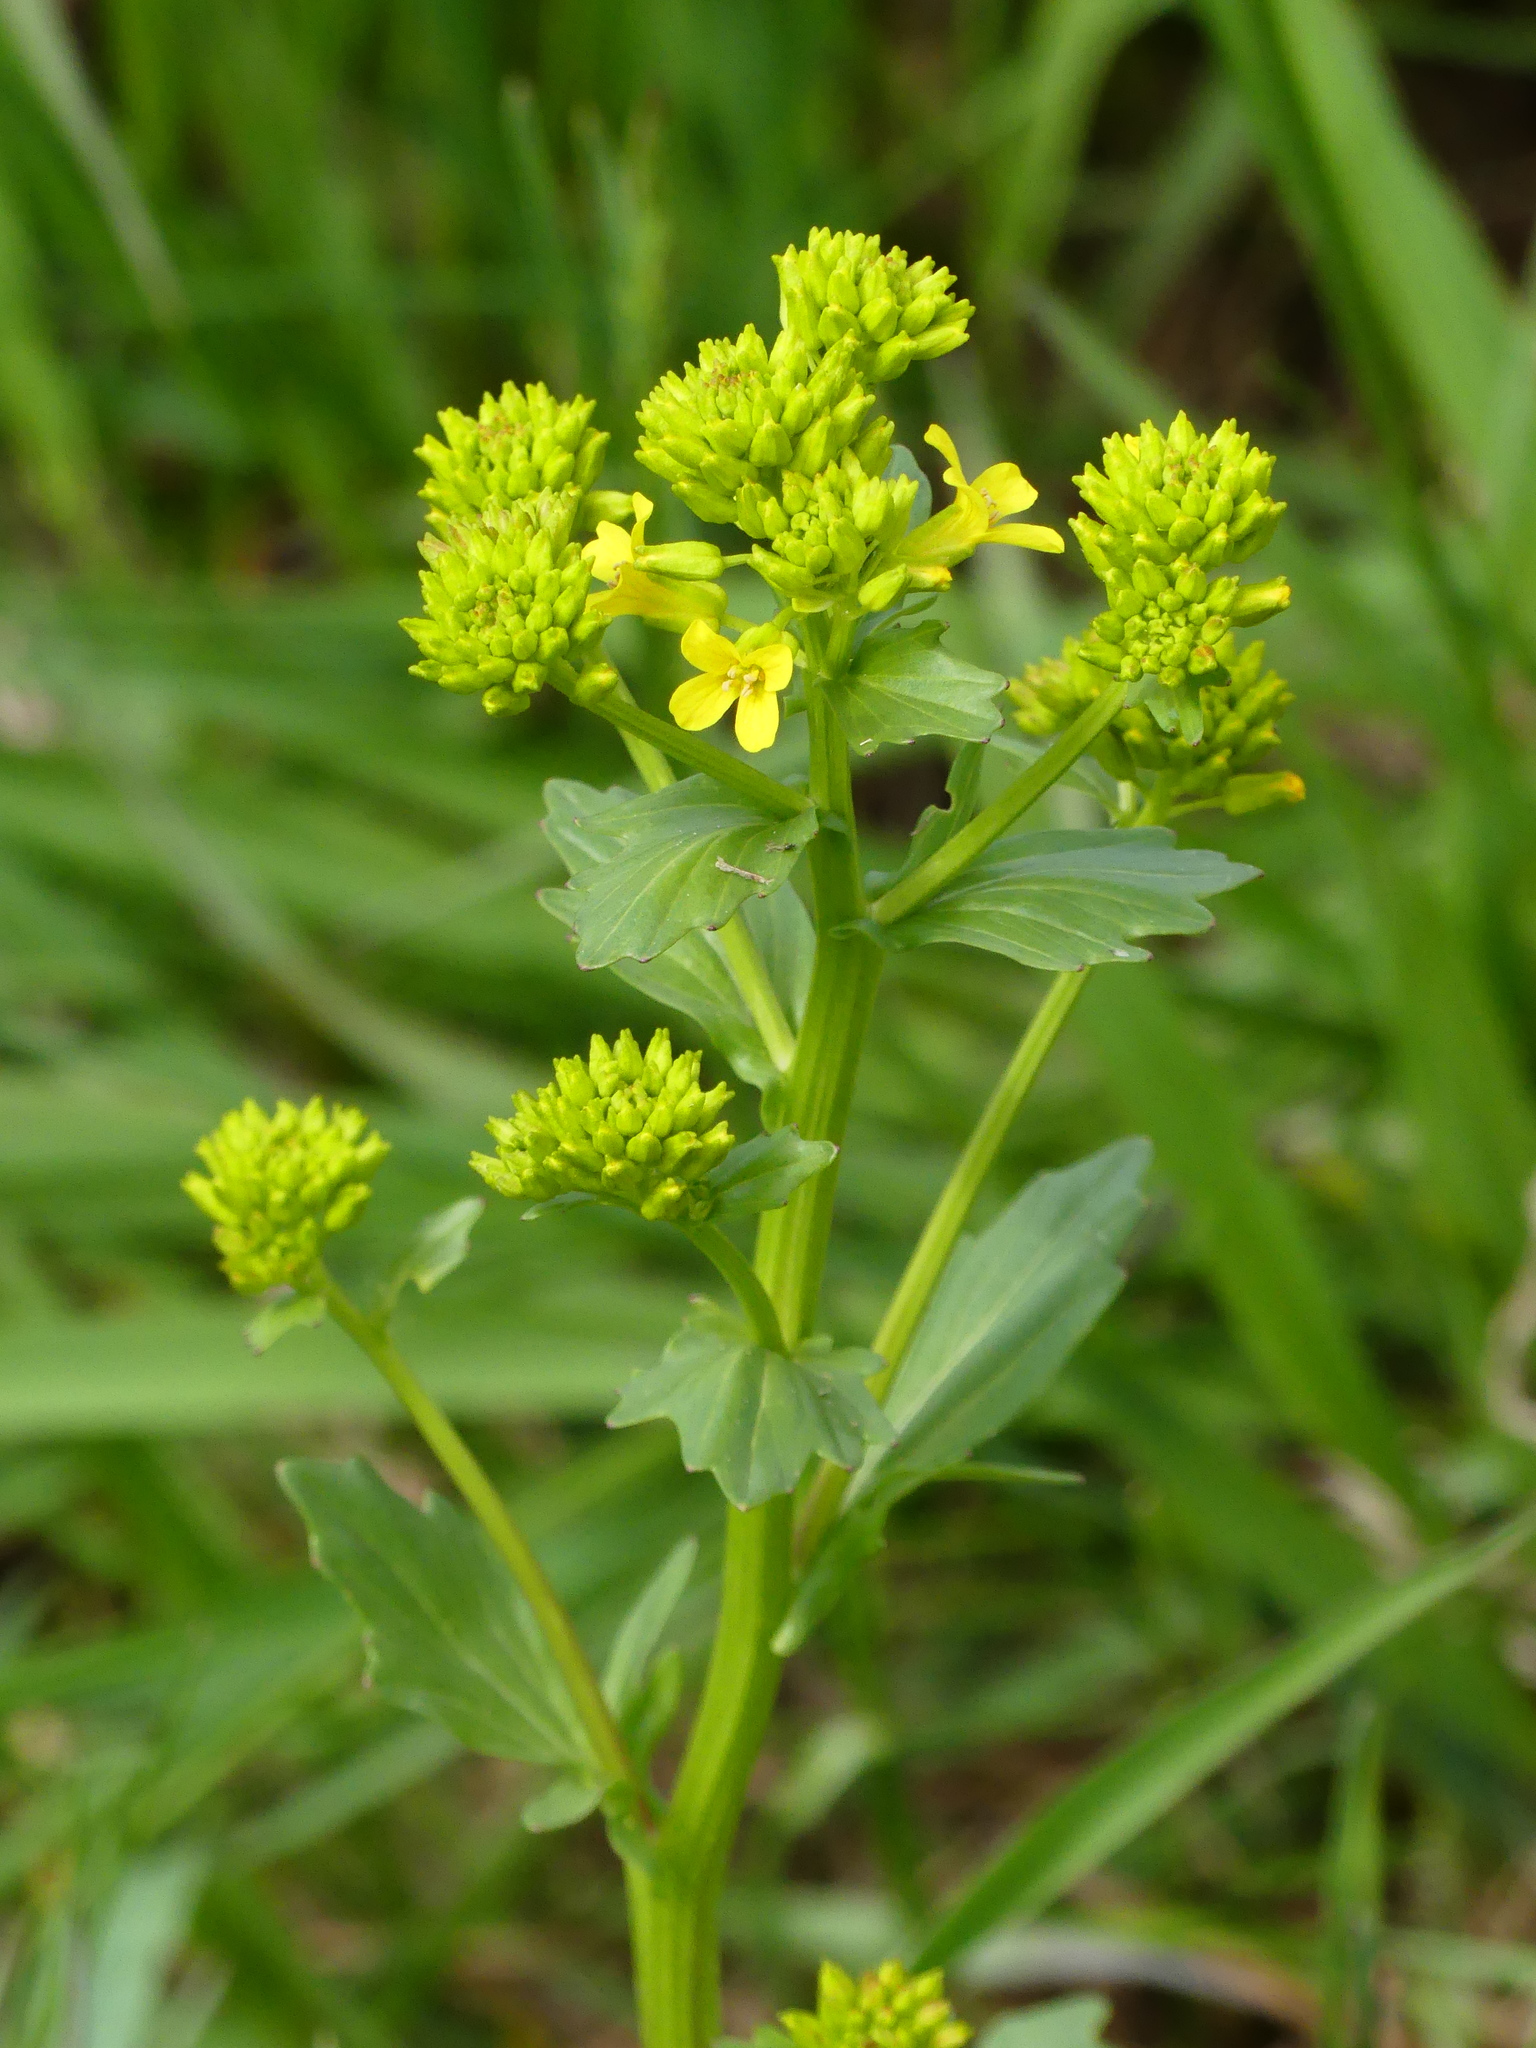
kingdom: Plantae
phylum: Tracheophyta
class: Magnoliopsida
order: Brassicales
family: Brassicaceae
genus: Barbarea
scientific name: Barbarea vulgaris
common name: Cressy-greens
